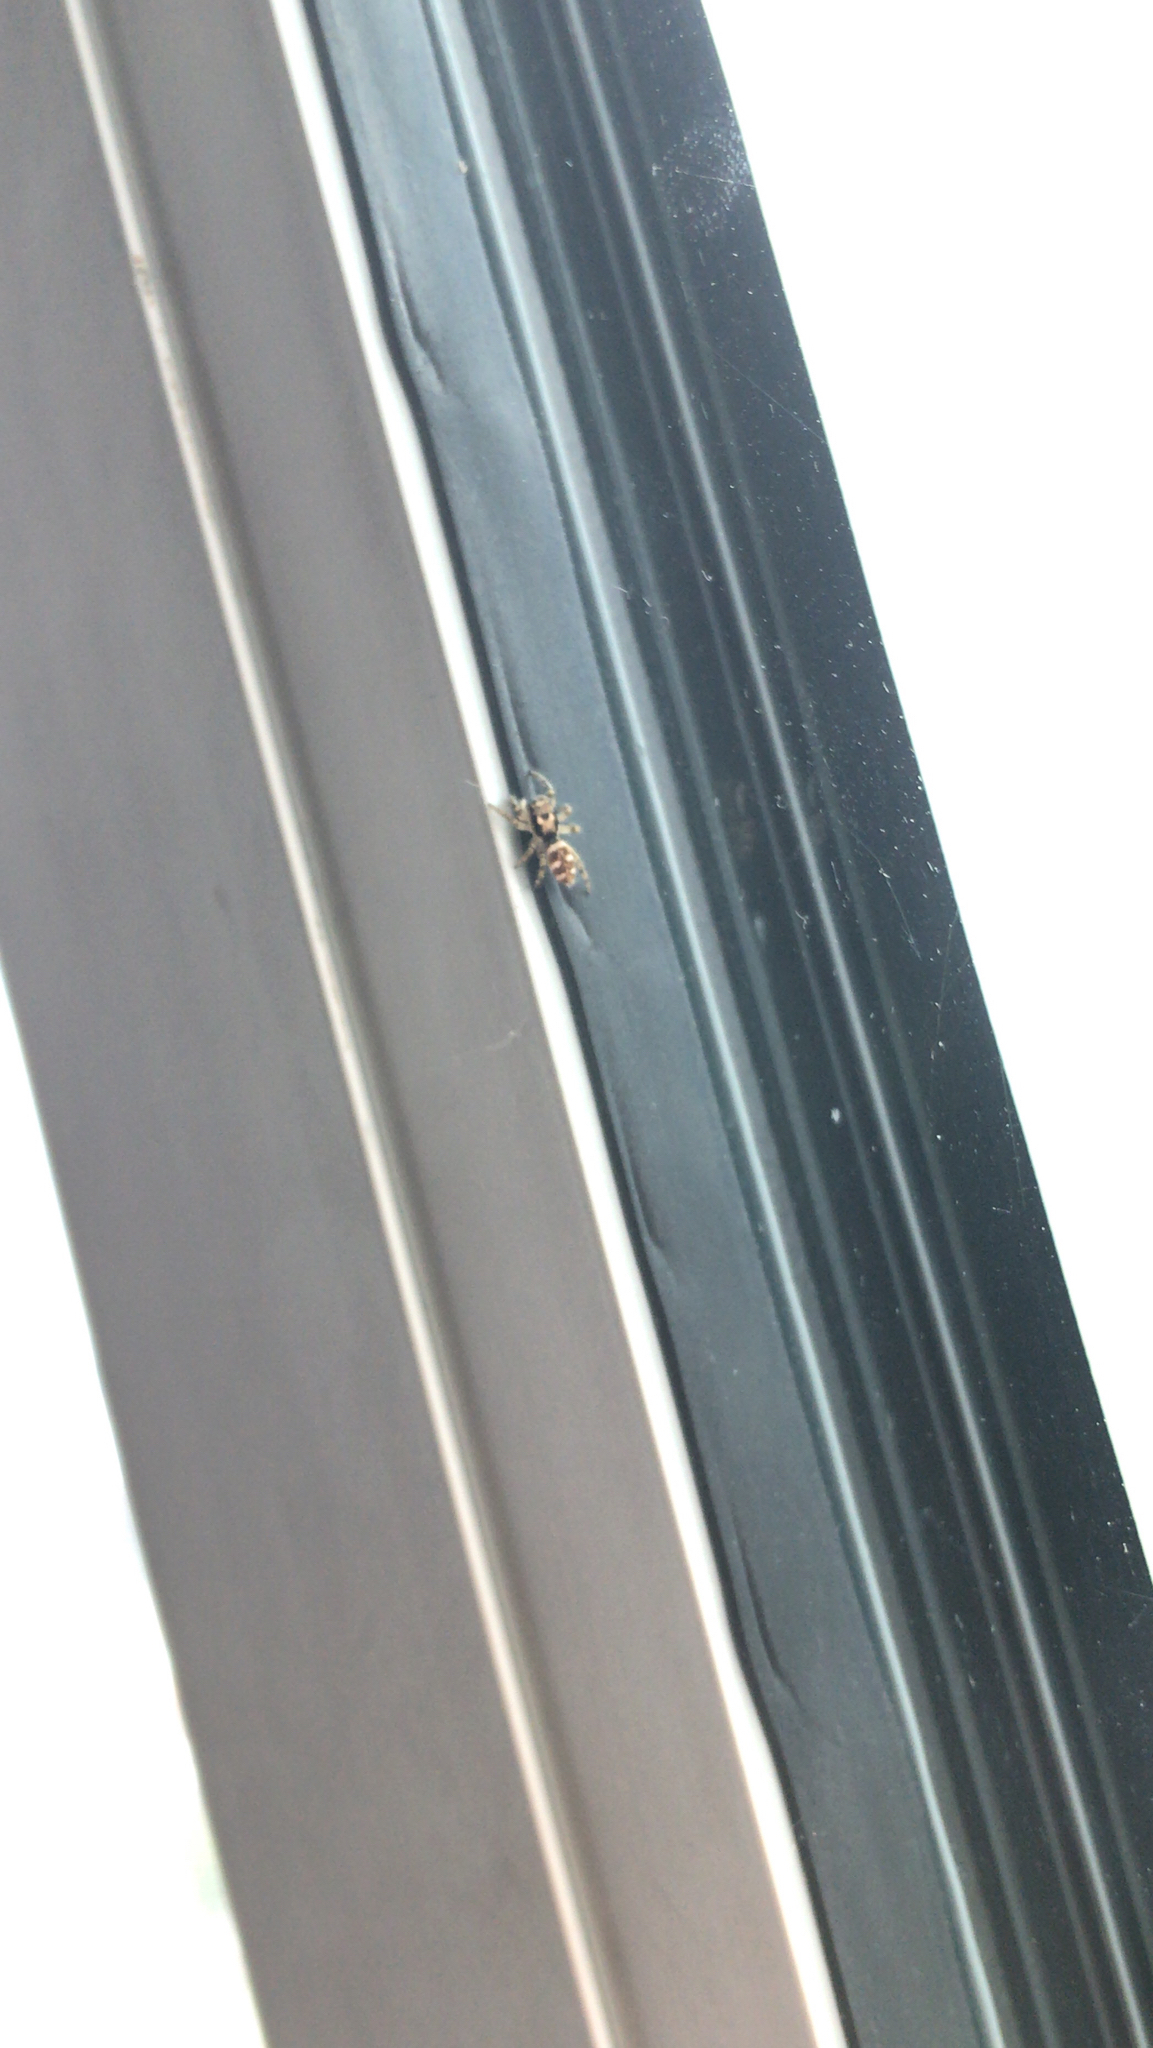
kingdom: Animalia
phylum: Arthropoda
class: Arachnida
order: Araneae
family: Salticidae
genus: Salticus
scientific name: Salticus scenicus
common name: Zebra jumper
